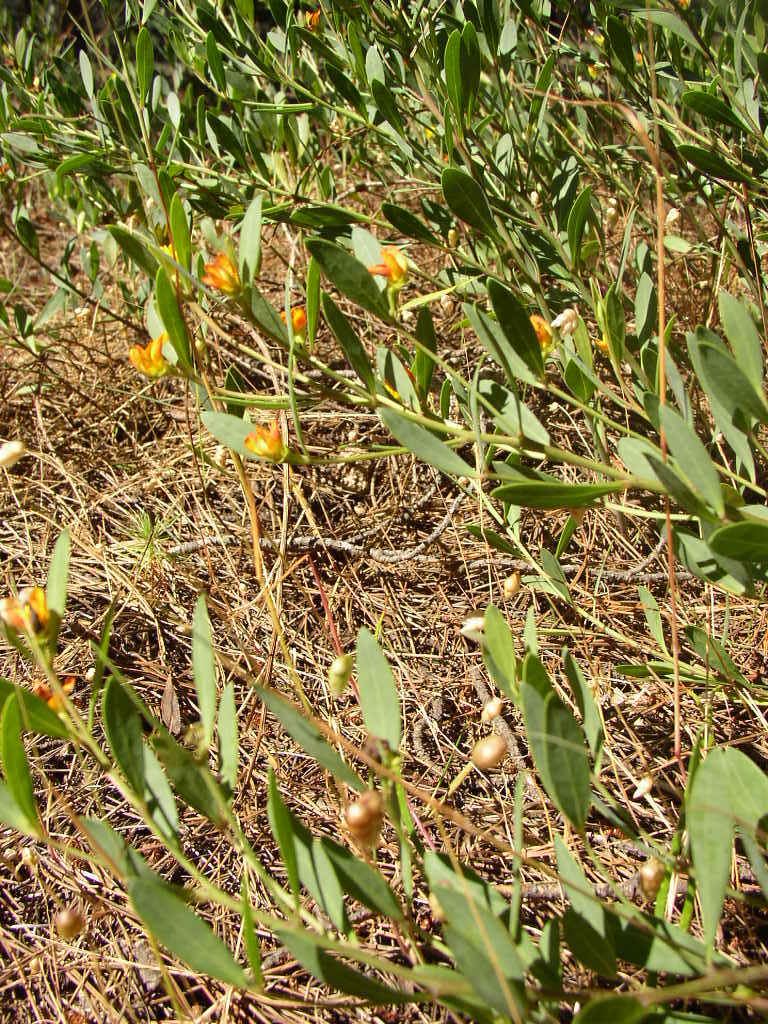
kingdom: Plantae
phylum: Tracheophyta
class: Magnoliopsida
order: Fabales
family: Fabaceae
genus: Rafnia
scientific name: Rafnia capensis
